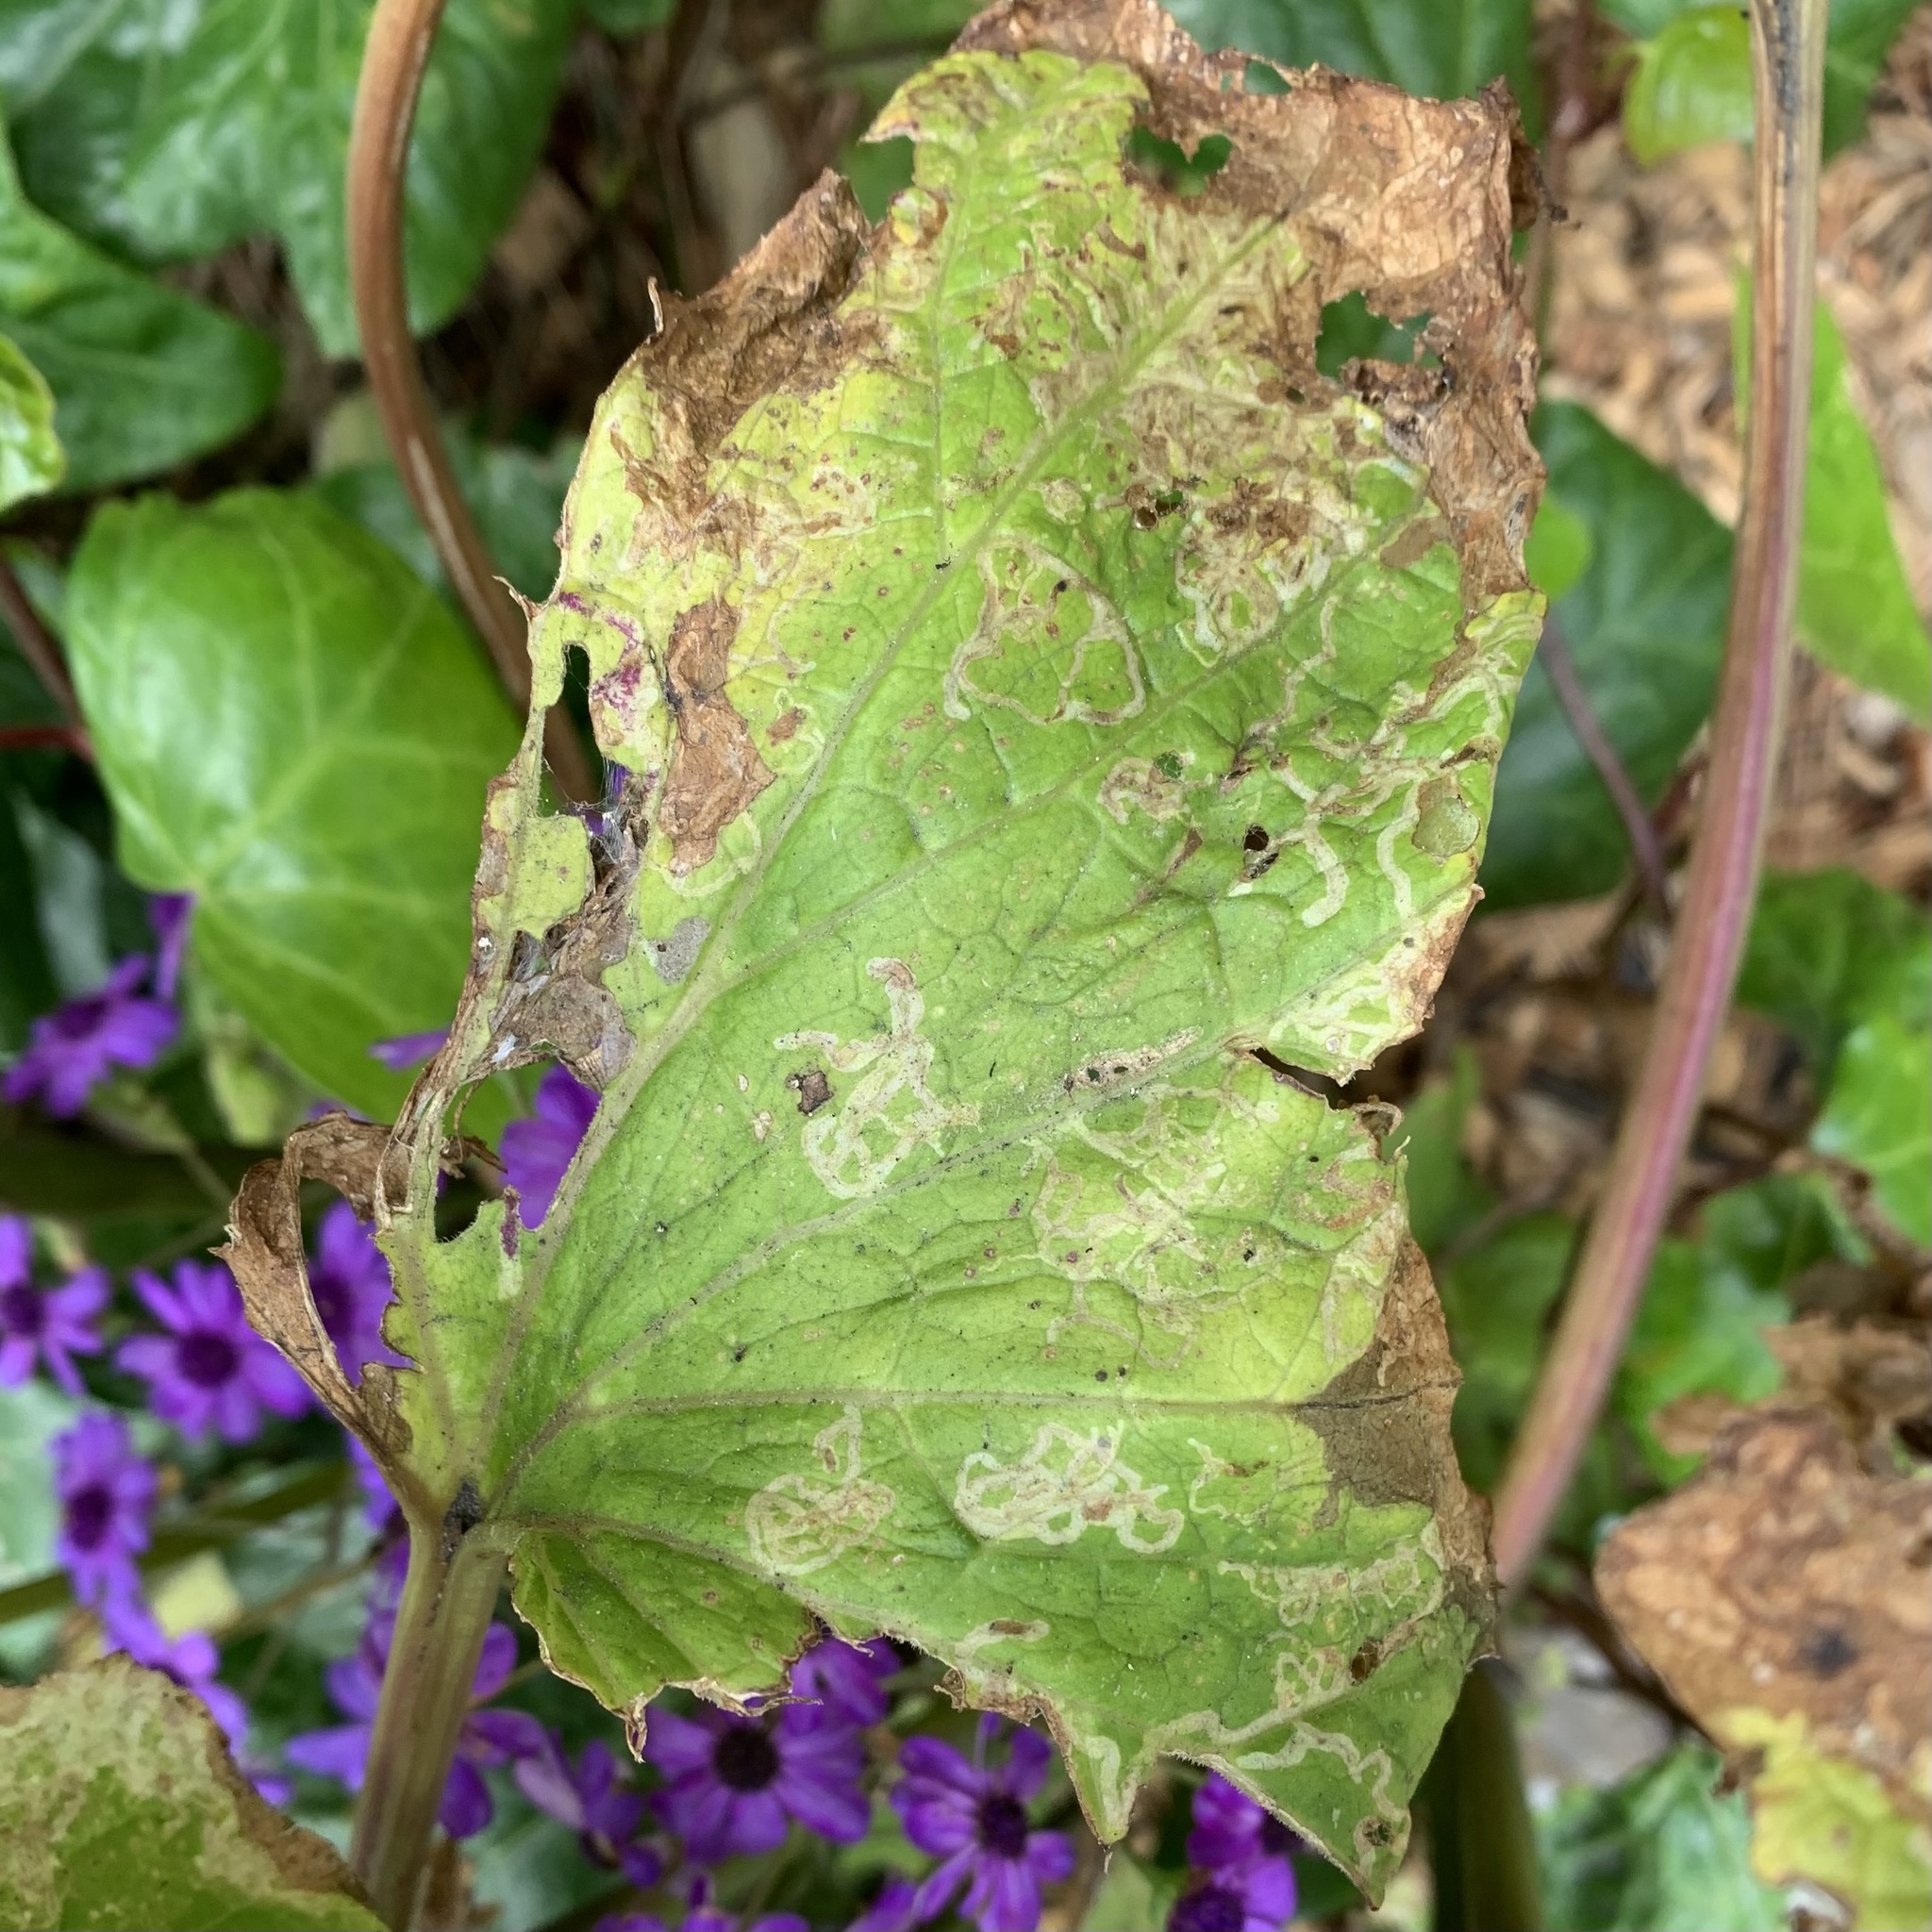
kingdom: Animalia
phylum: Arthropoda
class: Insecta
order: Diptera
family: Agromyzidae
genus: Phytomyza
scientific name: Phytomyza syngenesiae
